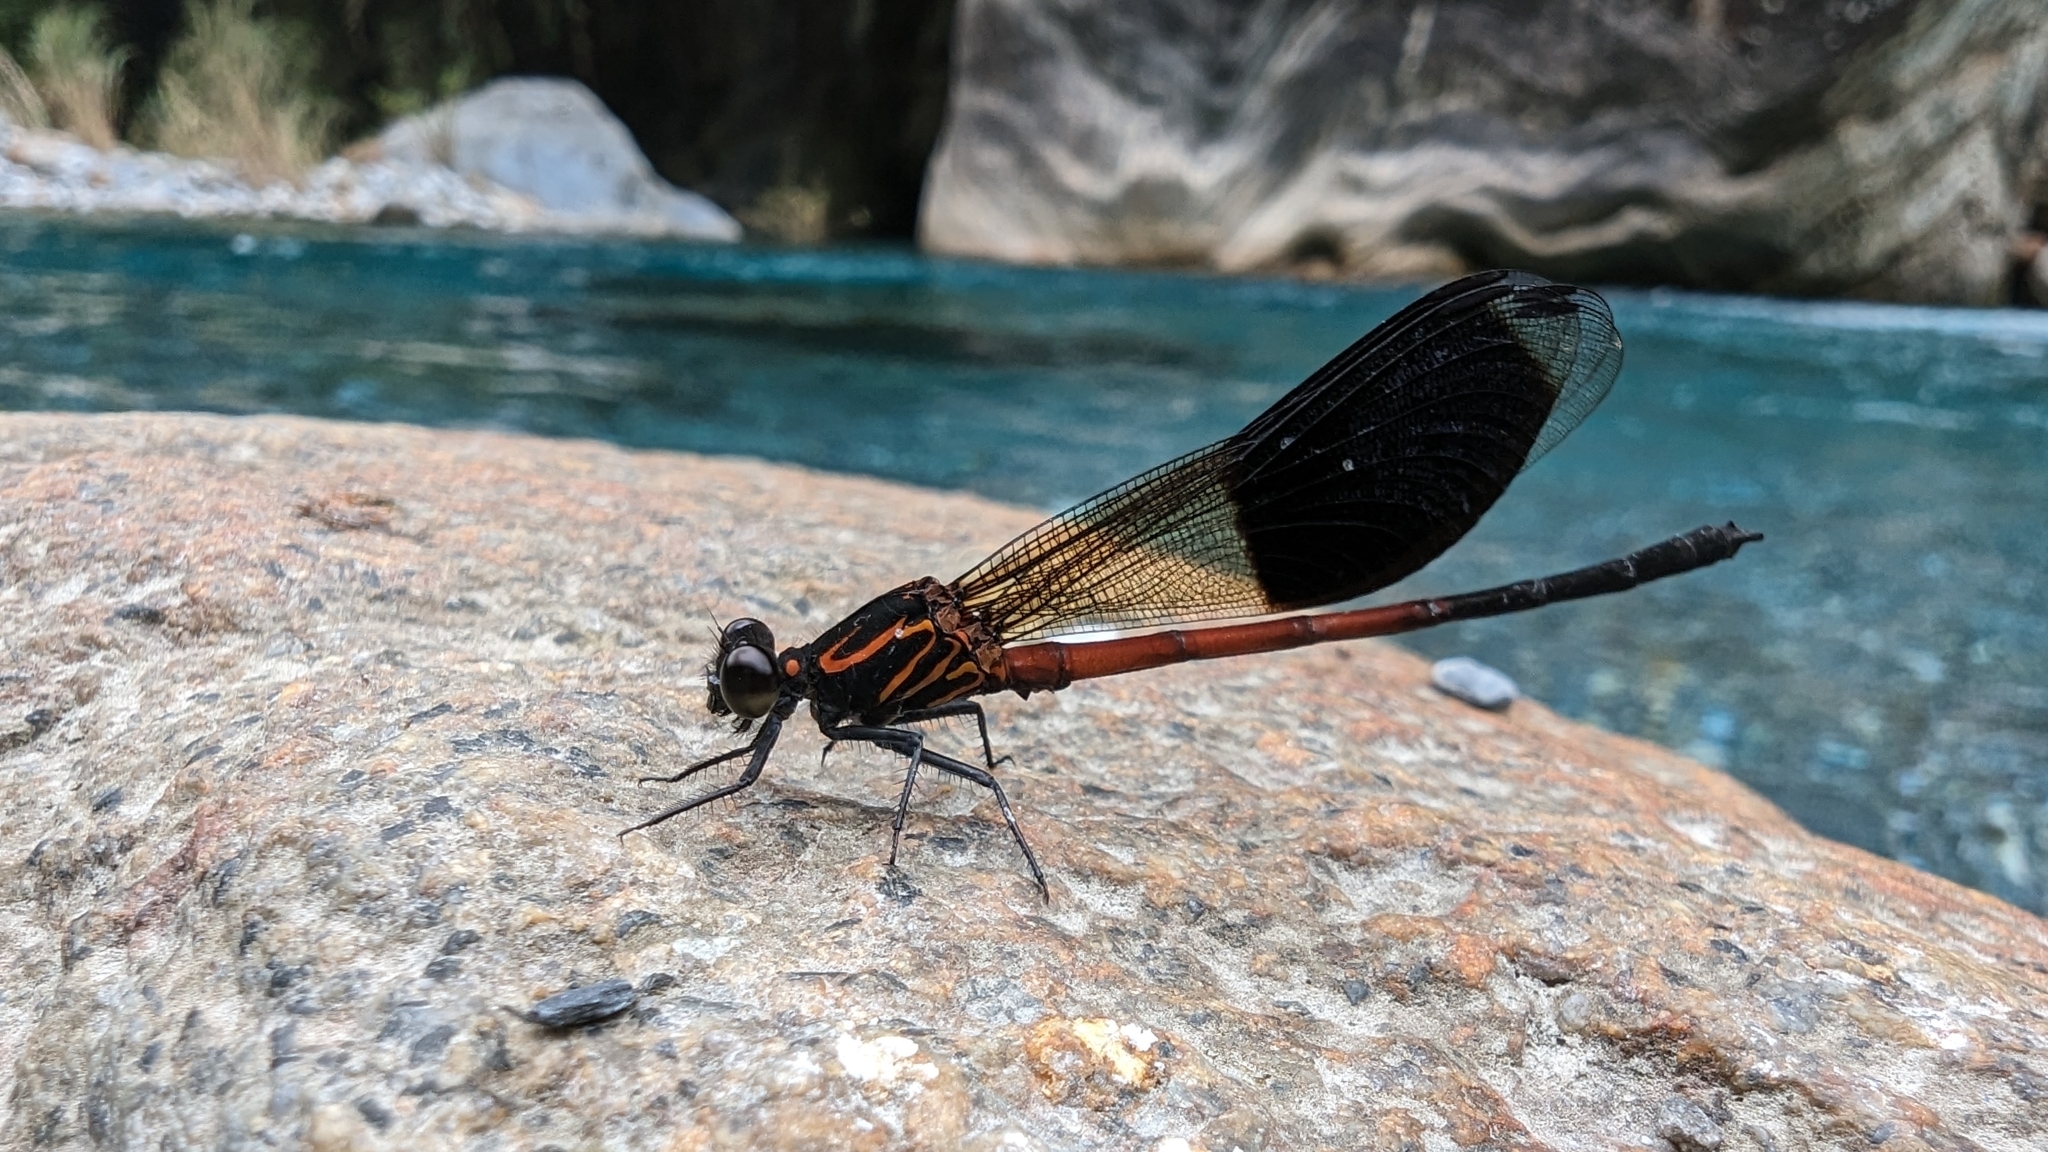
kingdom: Animalia
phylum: Arthropoda
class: Insecta
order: Odonata
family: Euphaeidae
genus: Euphaea
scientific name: Euphaea formosa
